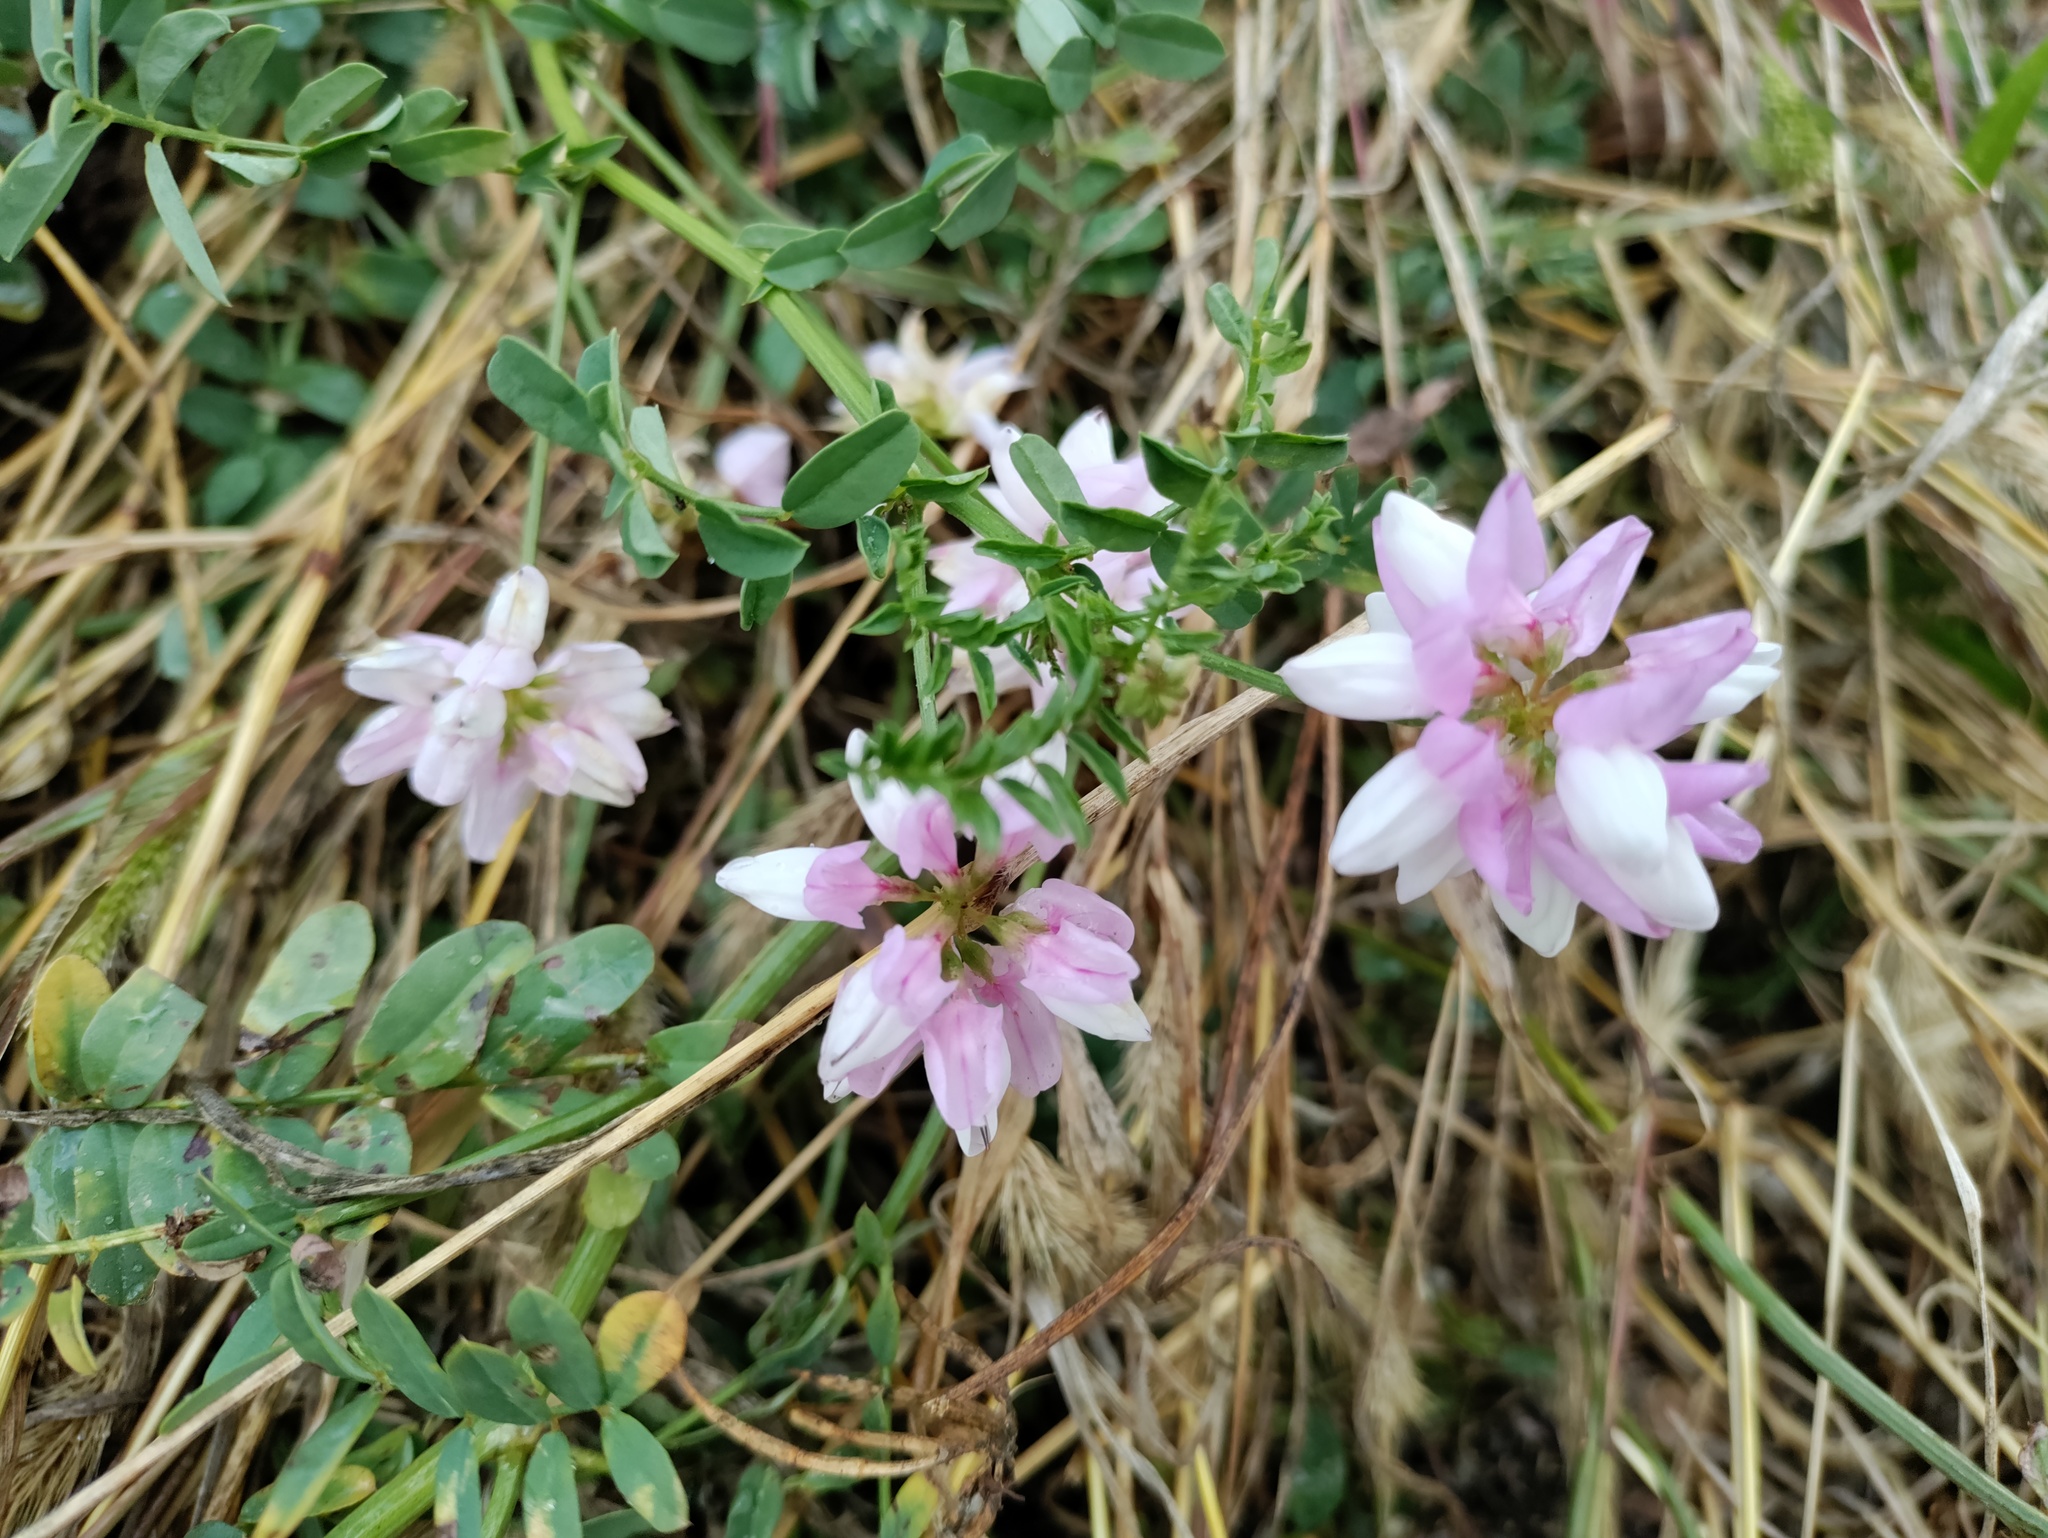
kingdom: Plantae
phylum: Tracheophyta
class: Magnoliopsida
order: Fabales
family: Fabaceae
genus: Coronilla
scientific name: Coronilla varia
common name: Crownvetch
